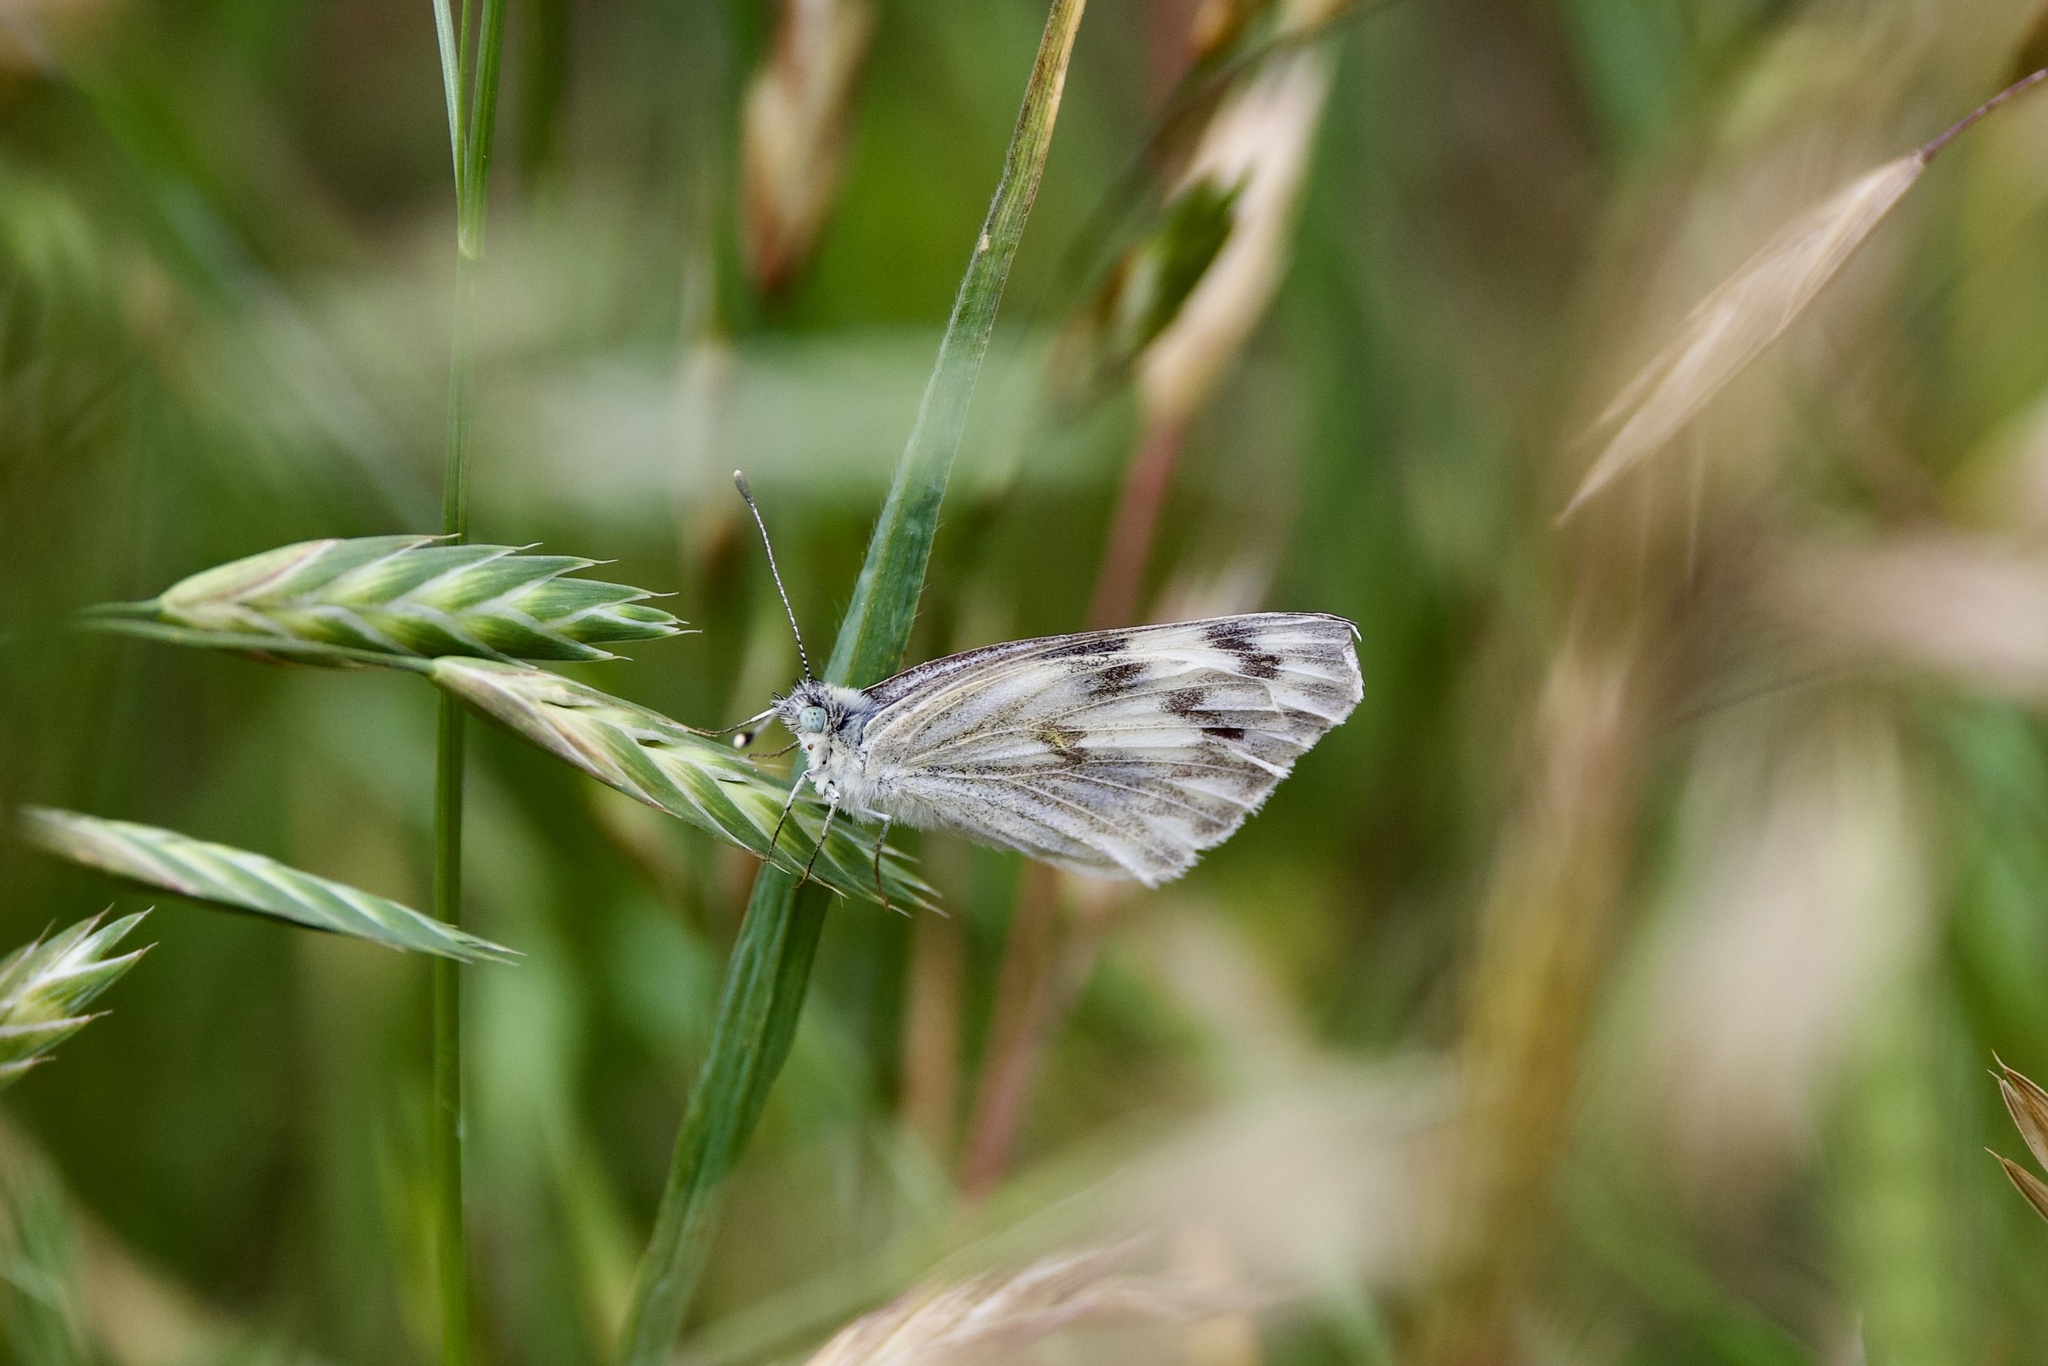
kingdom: Animalia
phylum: Arthropoda
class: Insecta
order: Lepidoptera
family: Pieridae
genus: Pontia
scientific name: Pontia protodice
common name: Checkered white
